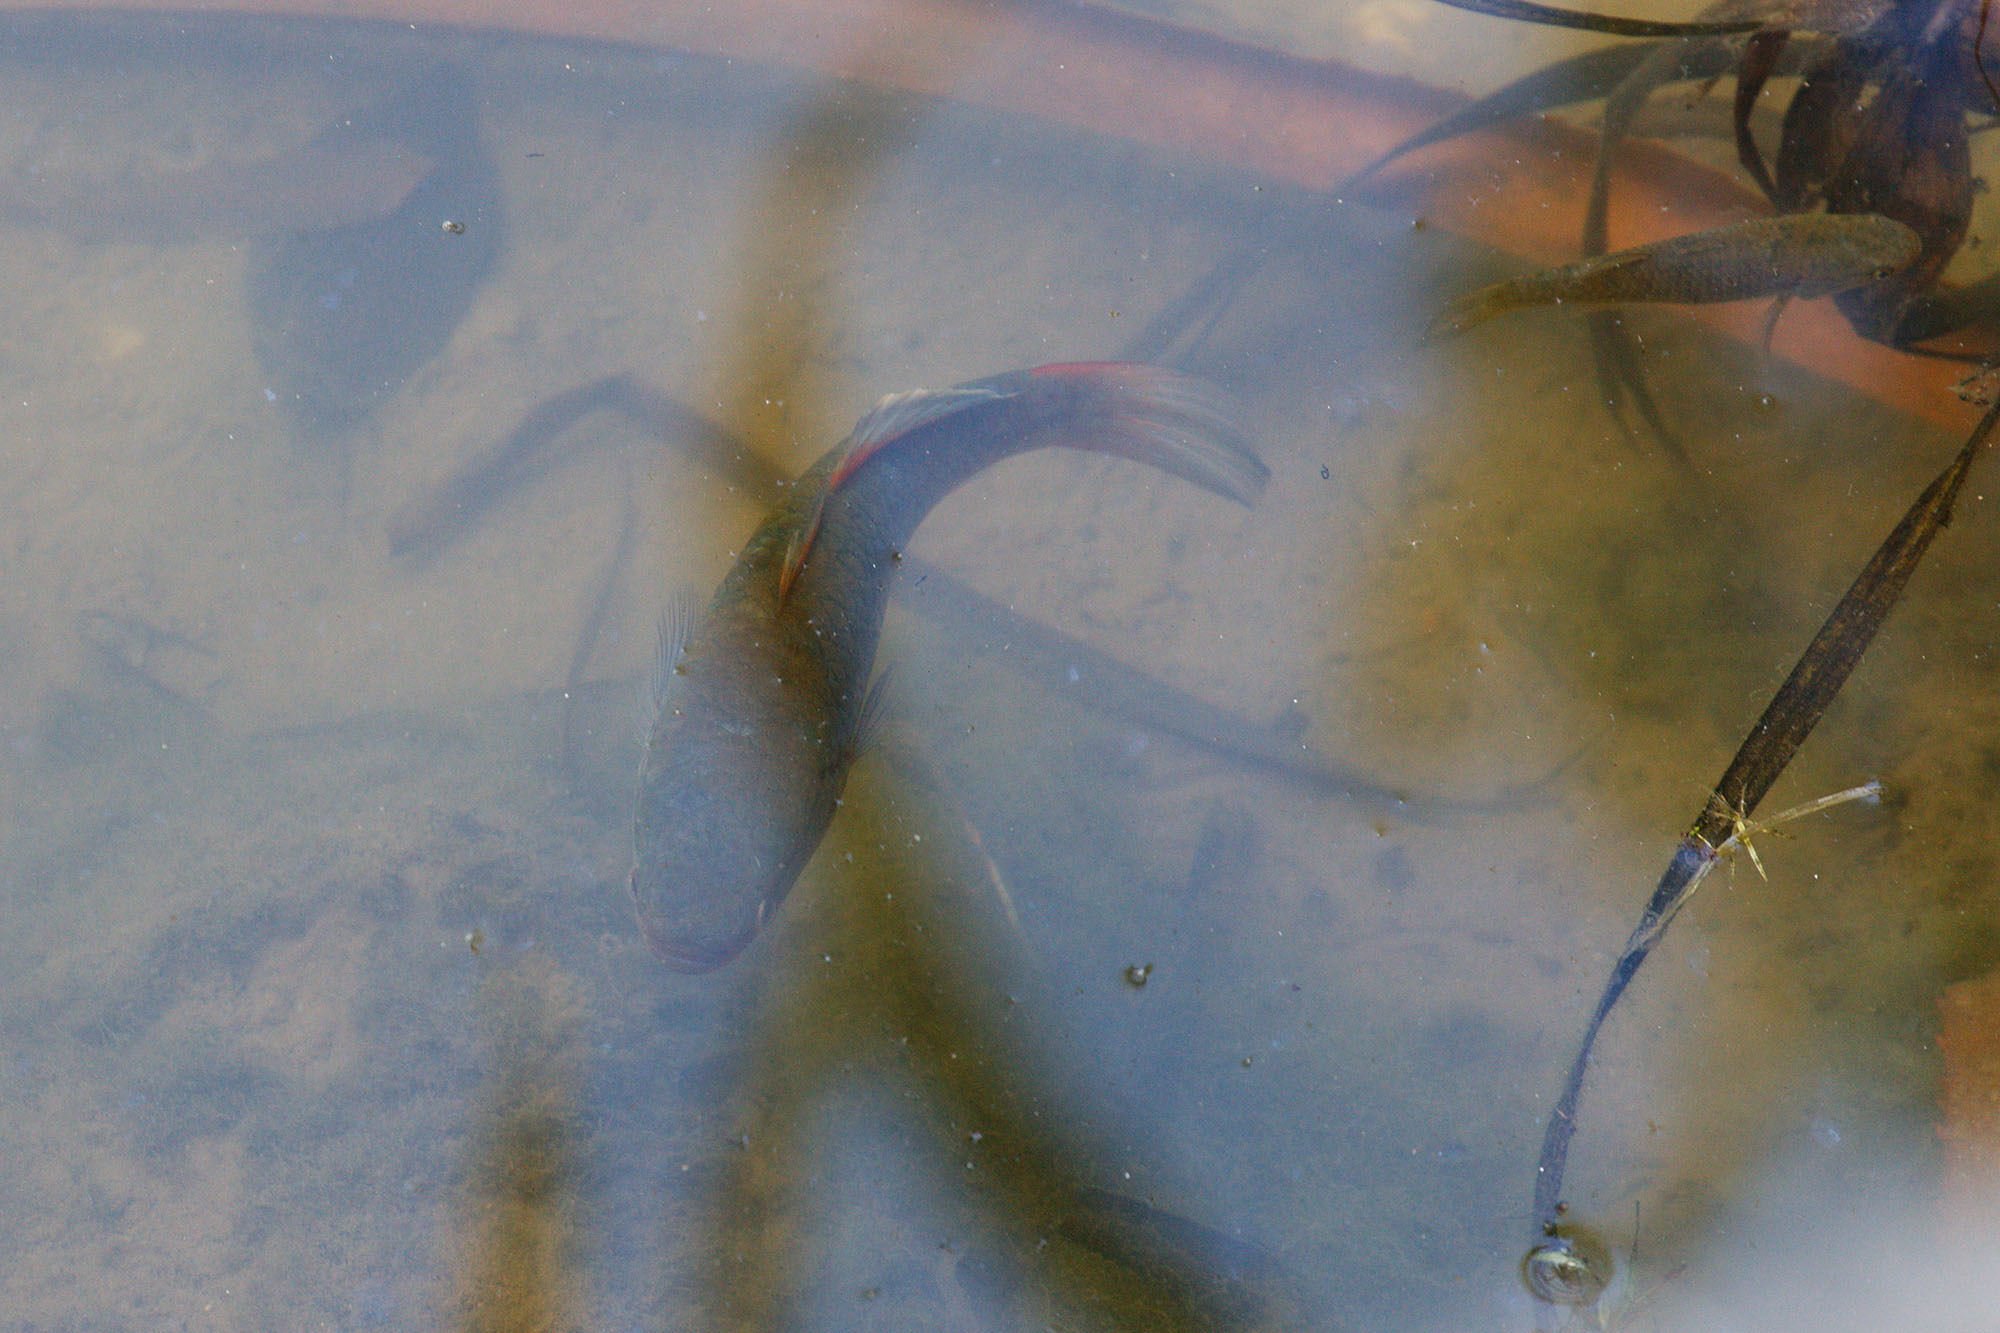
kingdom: Animalia
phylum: Chordata
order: Perciformes
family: Eleotridae
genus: Giuris
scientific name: Giuris
